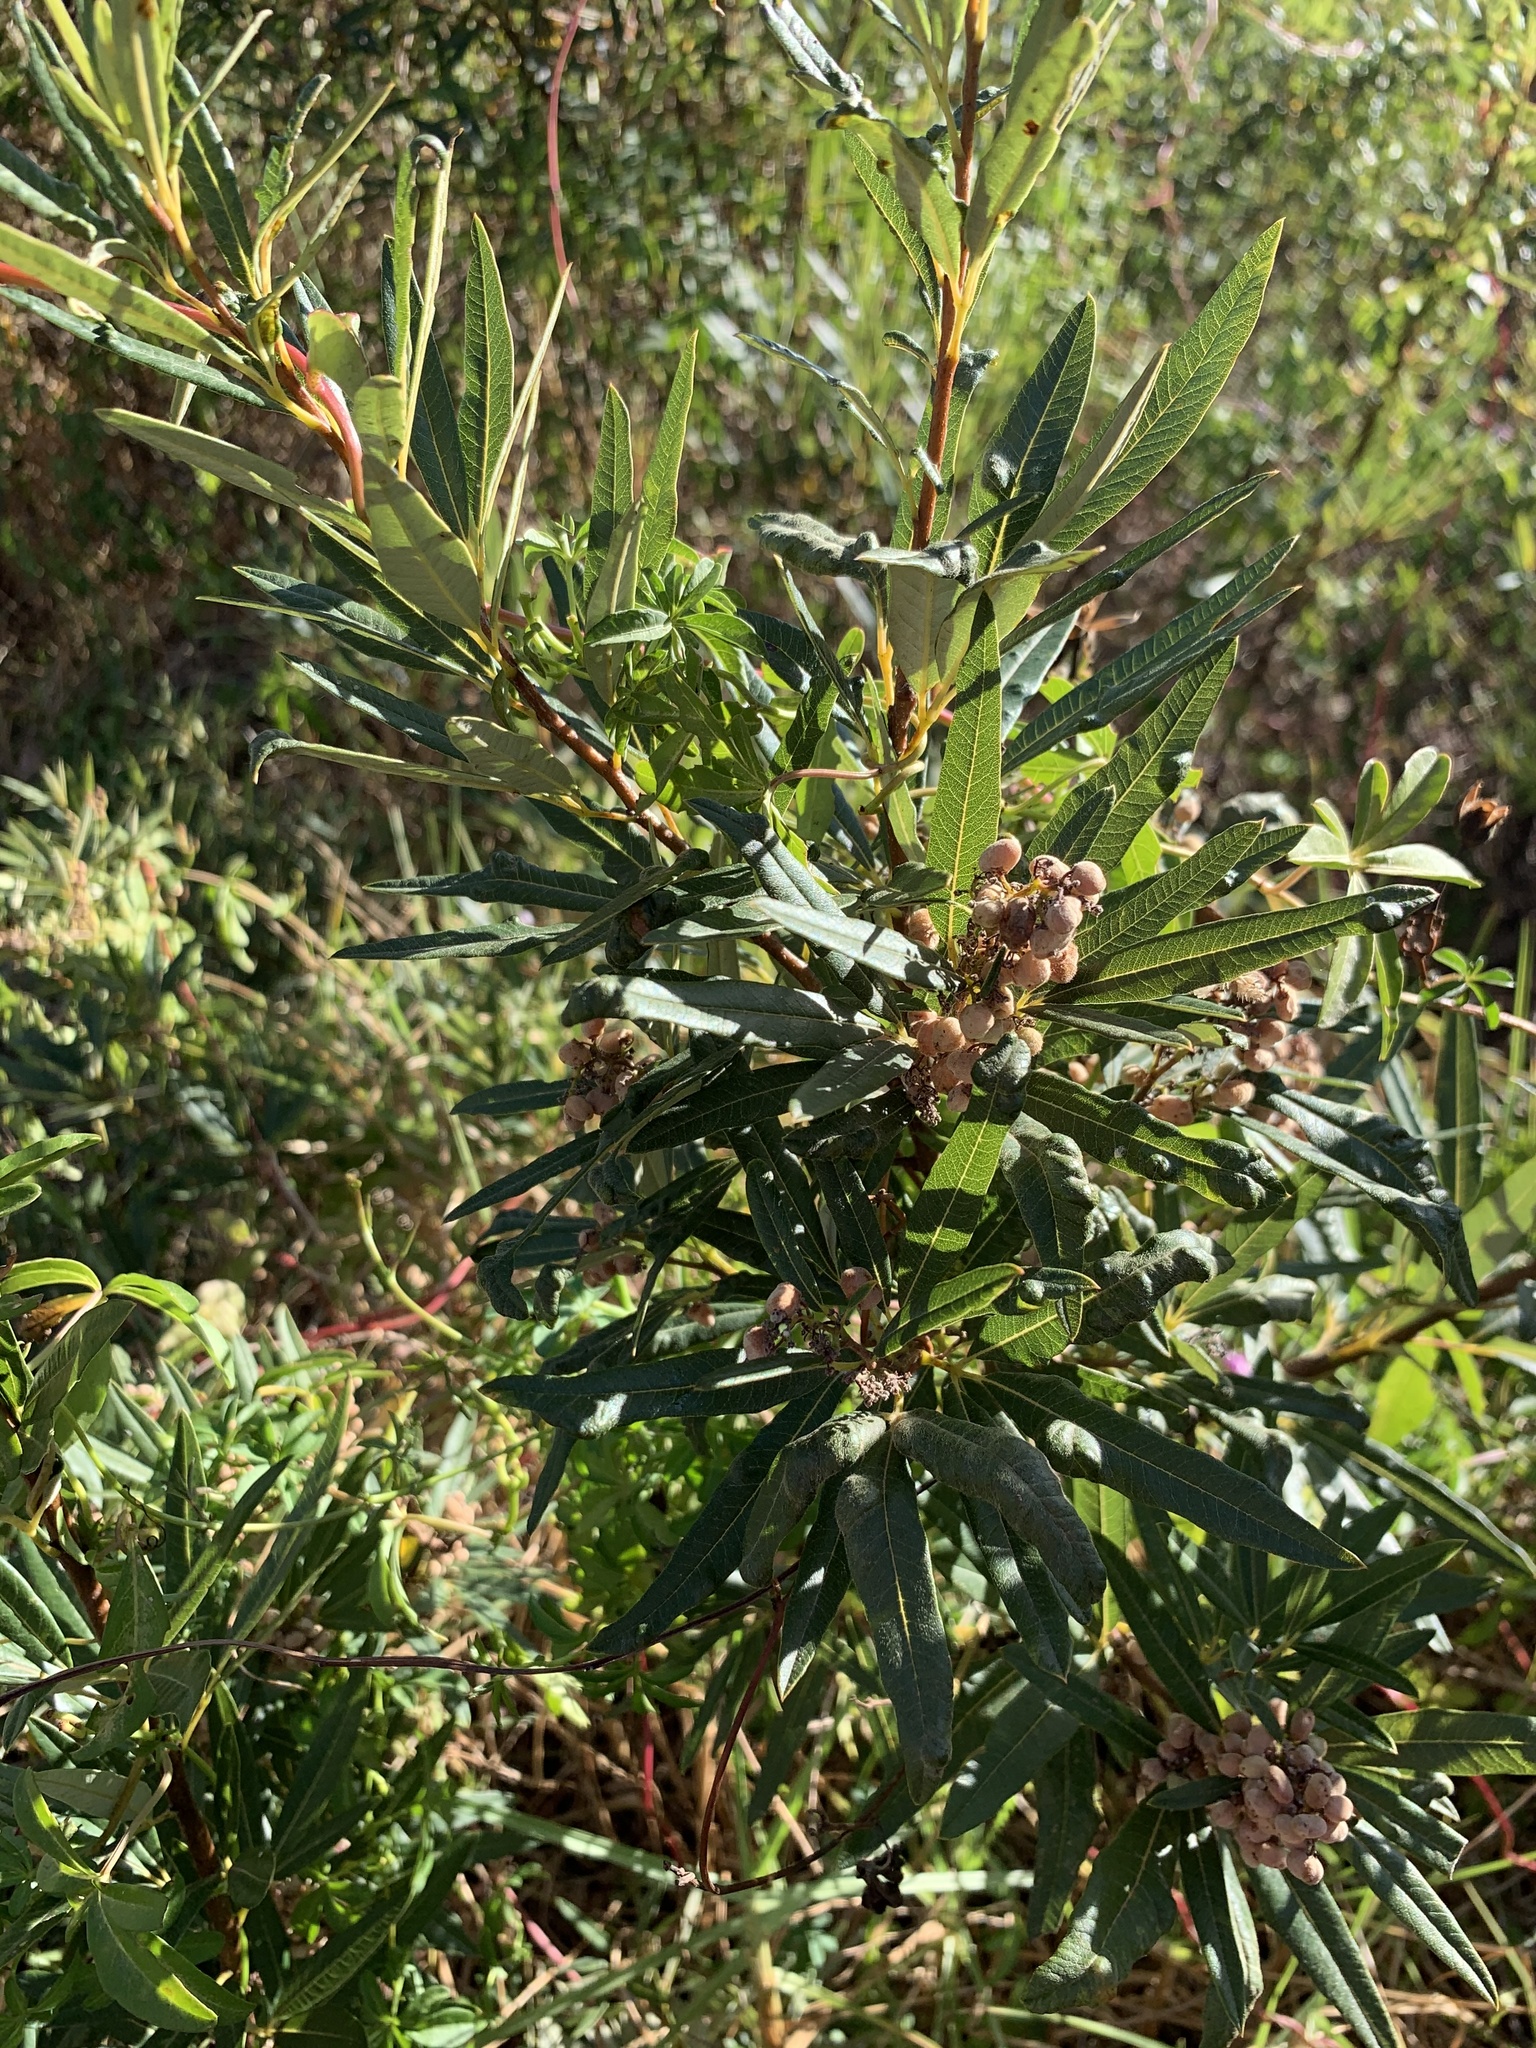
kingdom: Plantae
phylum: Tracheophyta
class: Magnoliopsida
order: Sapindales
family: Anacardiaceae
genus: Searsia
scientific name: Searsia angustifolia
